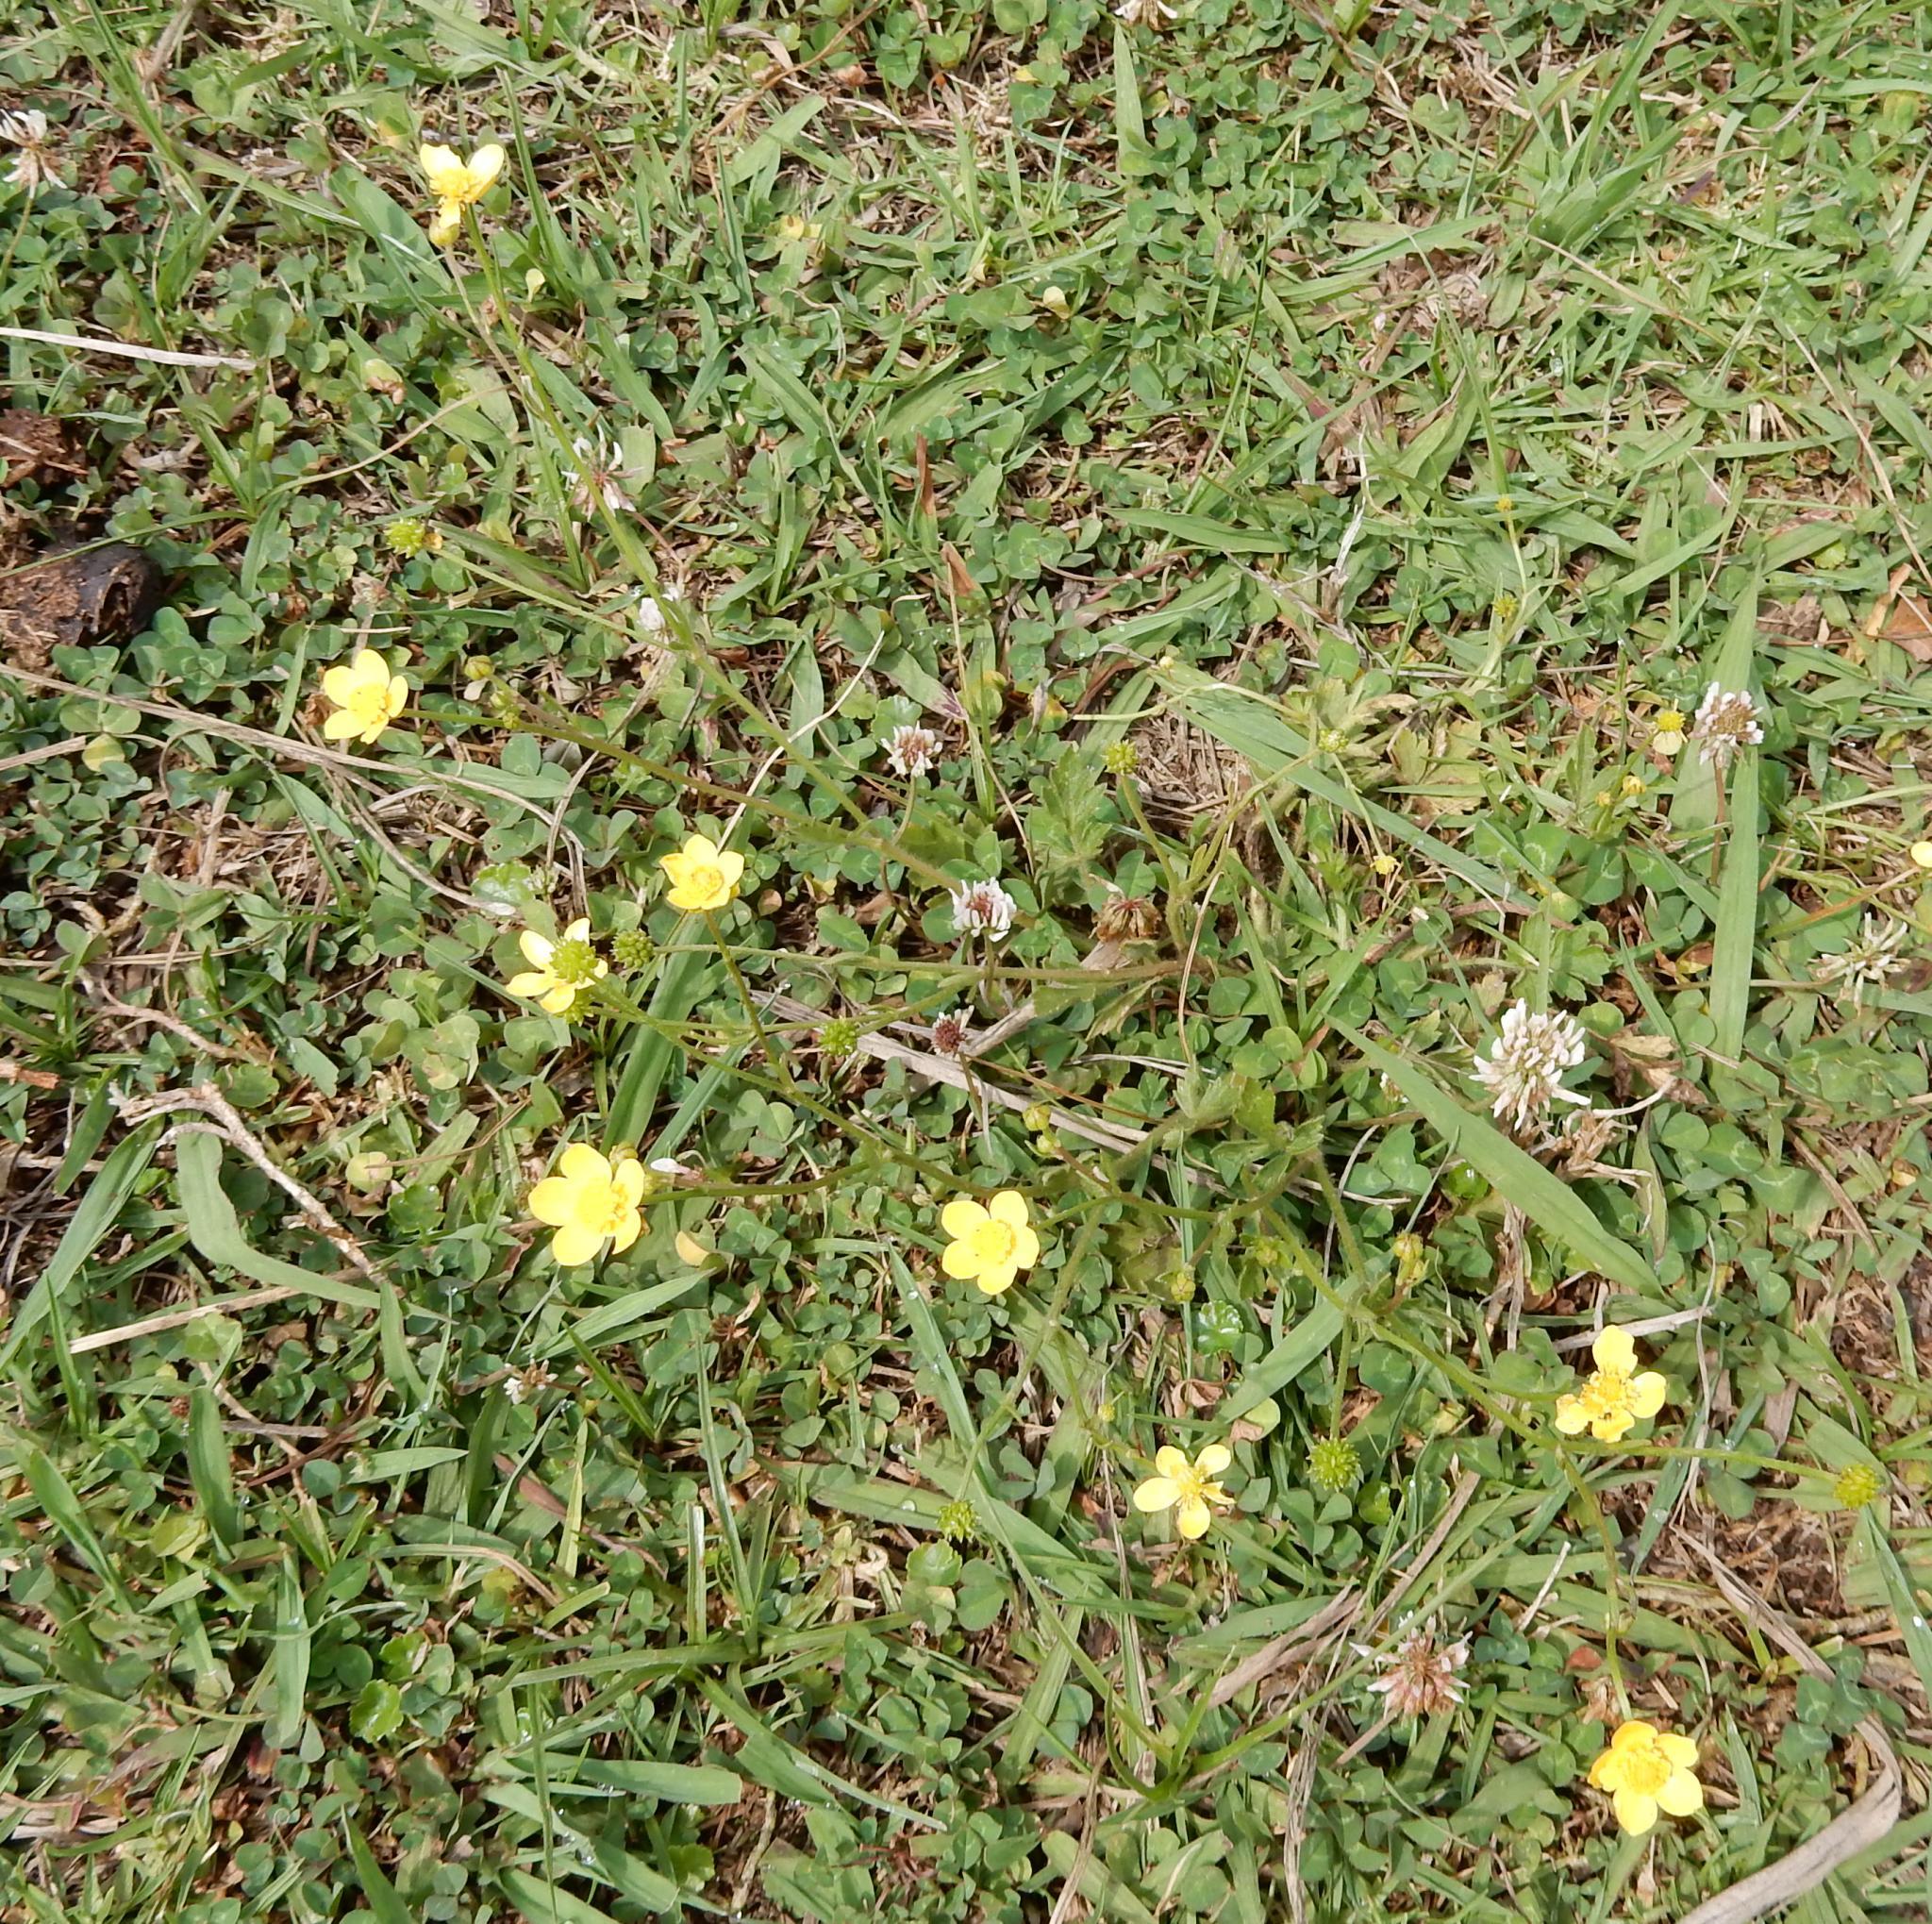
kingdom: Plantae
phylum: Tracheophyta
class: Magnoliopsida
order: Ranunculales
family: Ranunculaceae
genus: Ranunculus
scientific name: Ranunculus multifidus
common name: Wild buttercup
